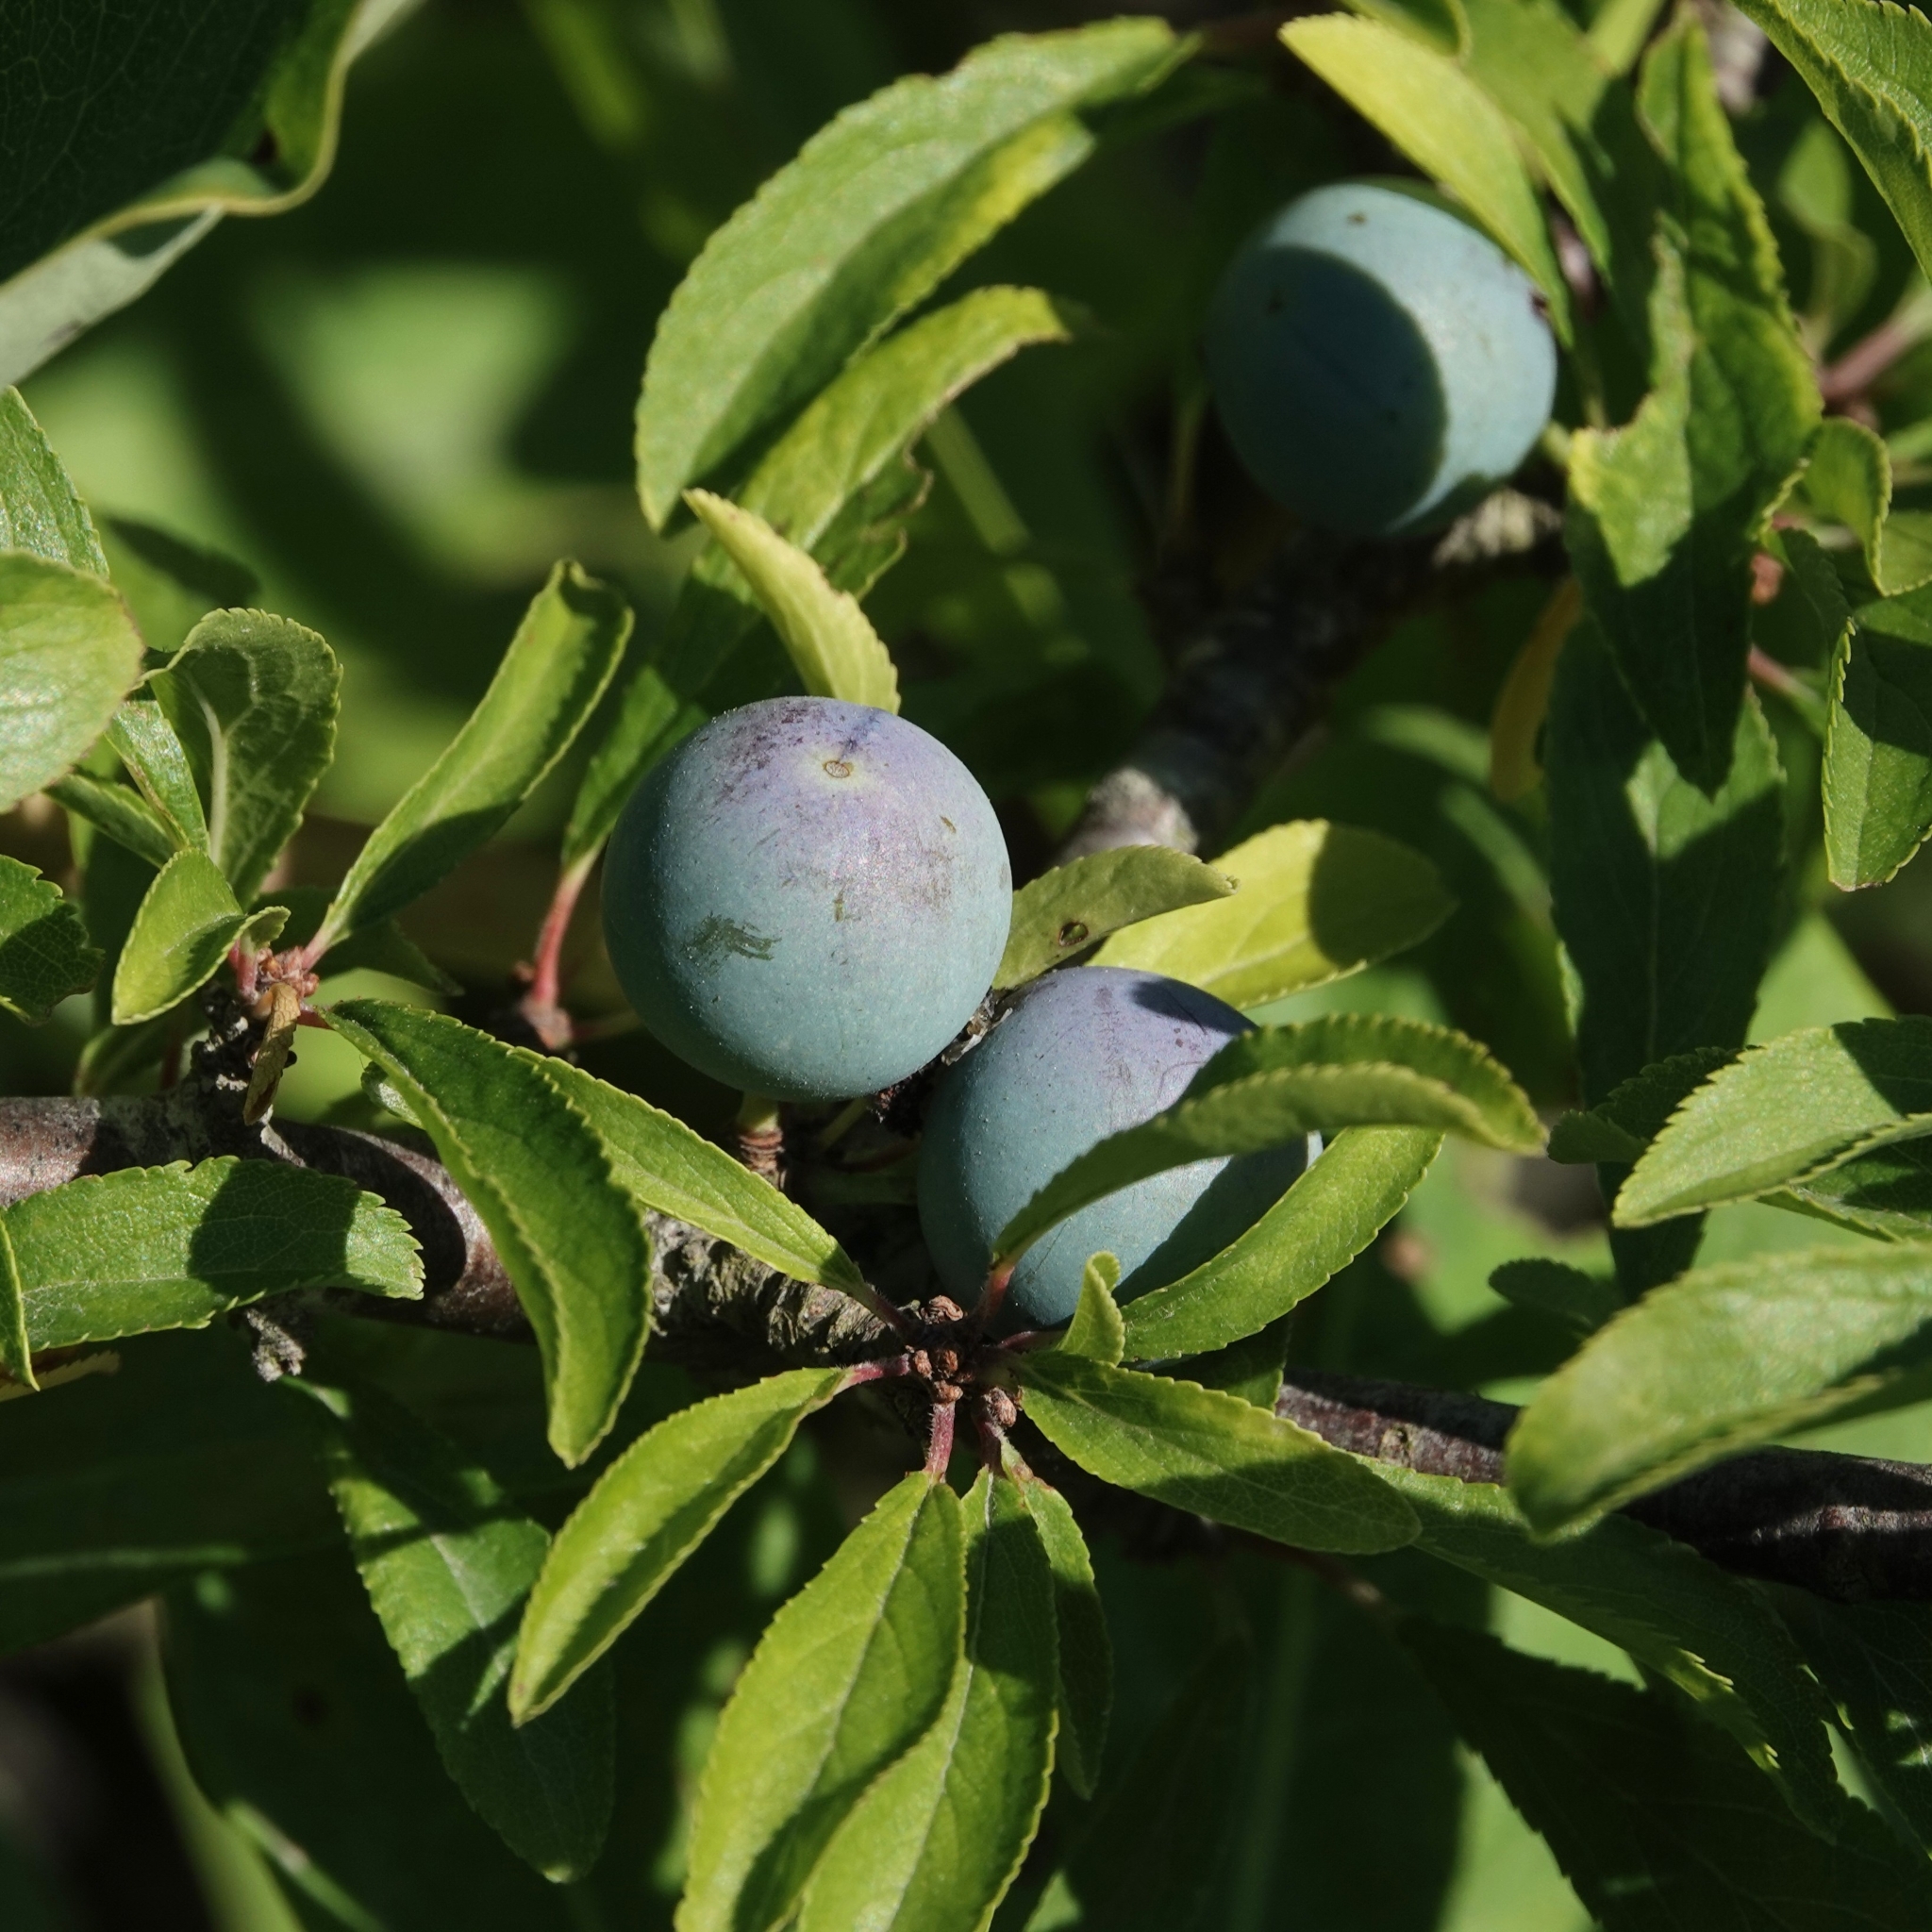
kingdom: Plantae
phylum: Tracheophyta
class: Magnoliopsida
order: Rosales
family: Rosaceae
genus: Prunus
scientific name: Prunus spinosa
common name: Blackthorn
